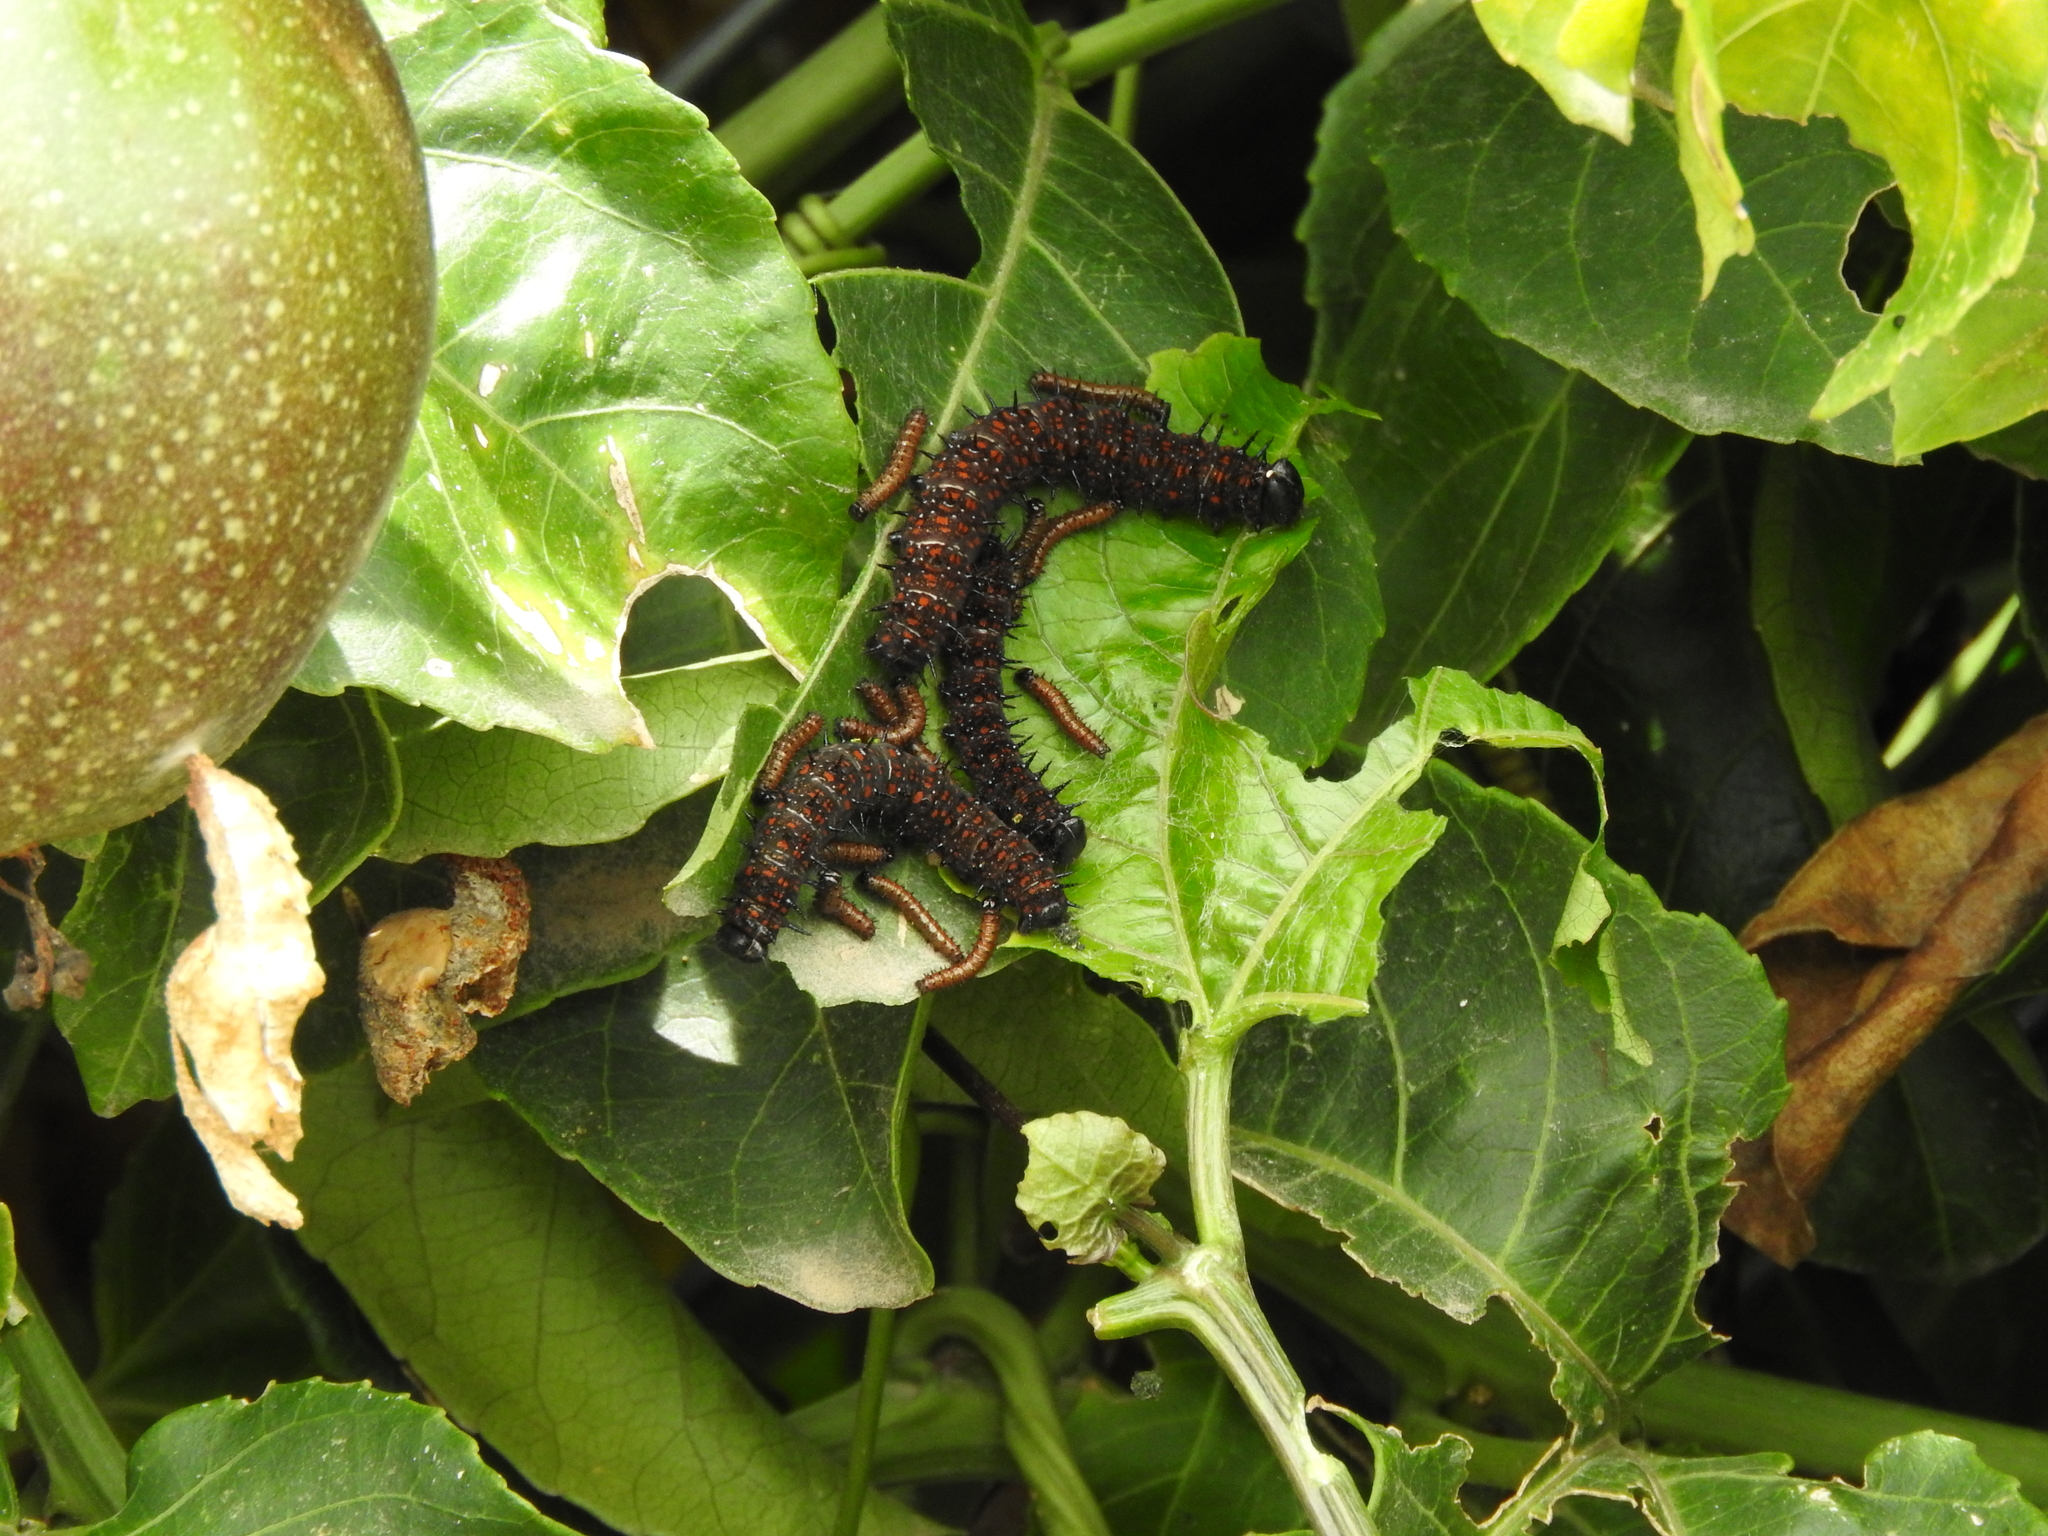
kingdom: Animalia
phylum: Arthropoda
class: Insecta
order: Lepidoptera
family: Nymphalidae
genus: Dione
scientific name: Dione juno
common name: Juno silverspot
